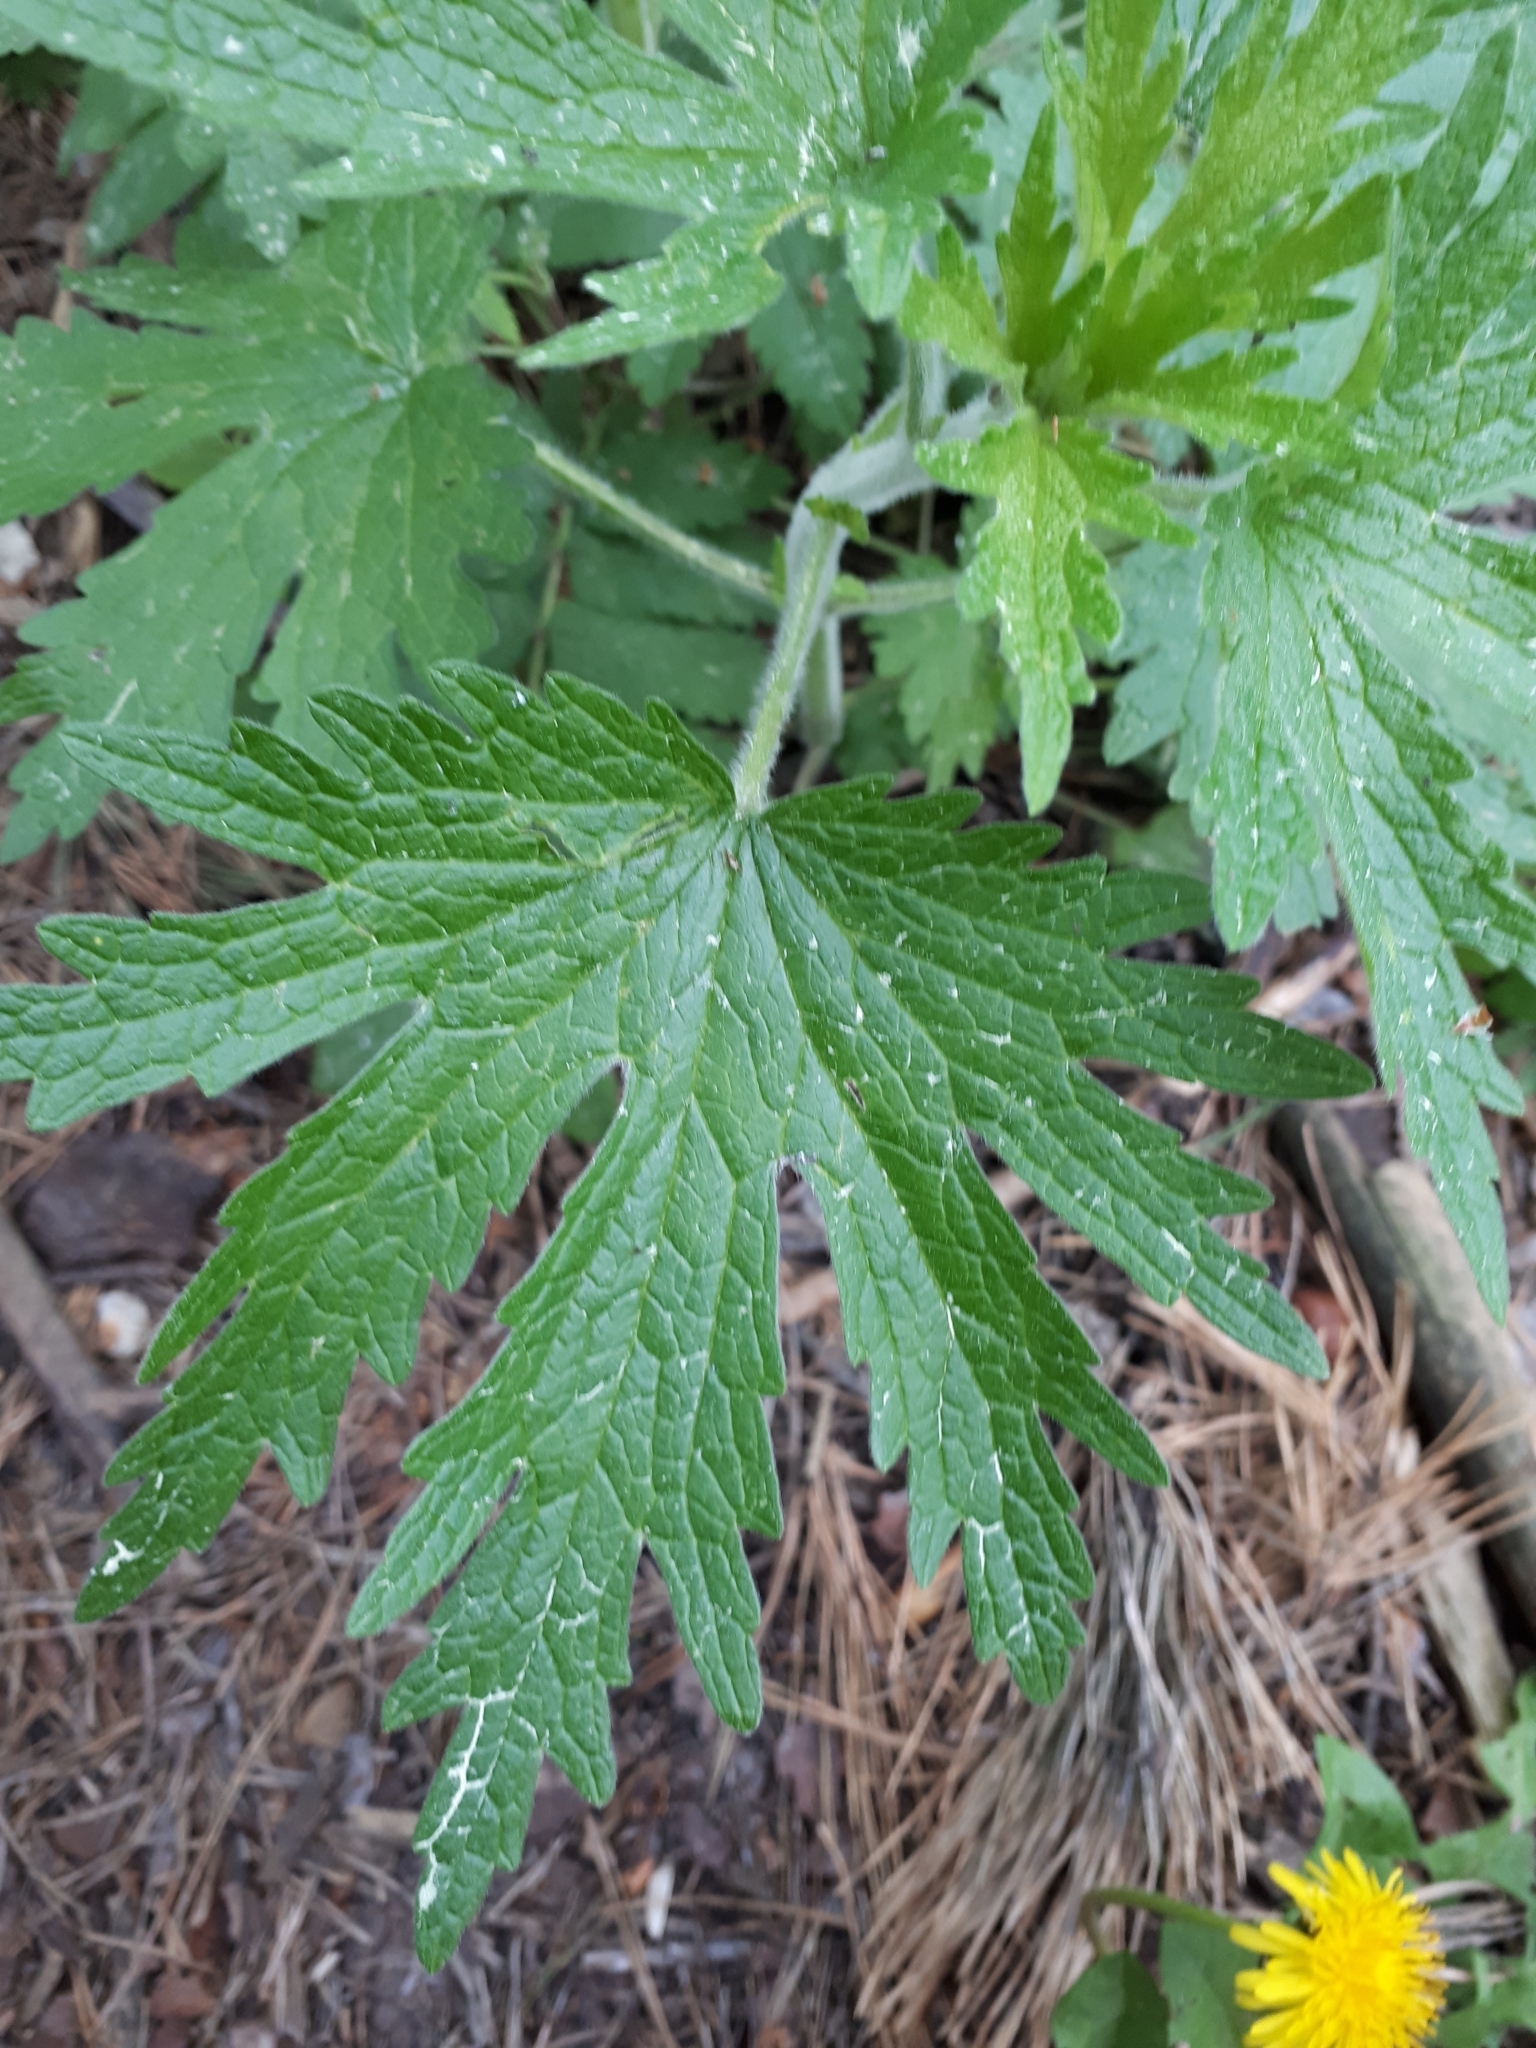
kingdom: Plantae
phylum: Tracheophyta
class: Magnoliopsida
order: Lamiales
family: Lamiaceae
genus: Leonurus
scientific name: Leonurus quinquelobatus
